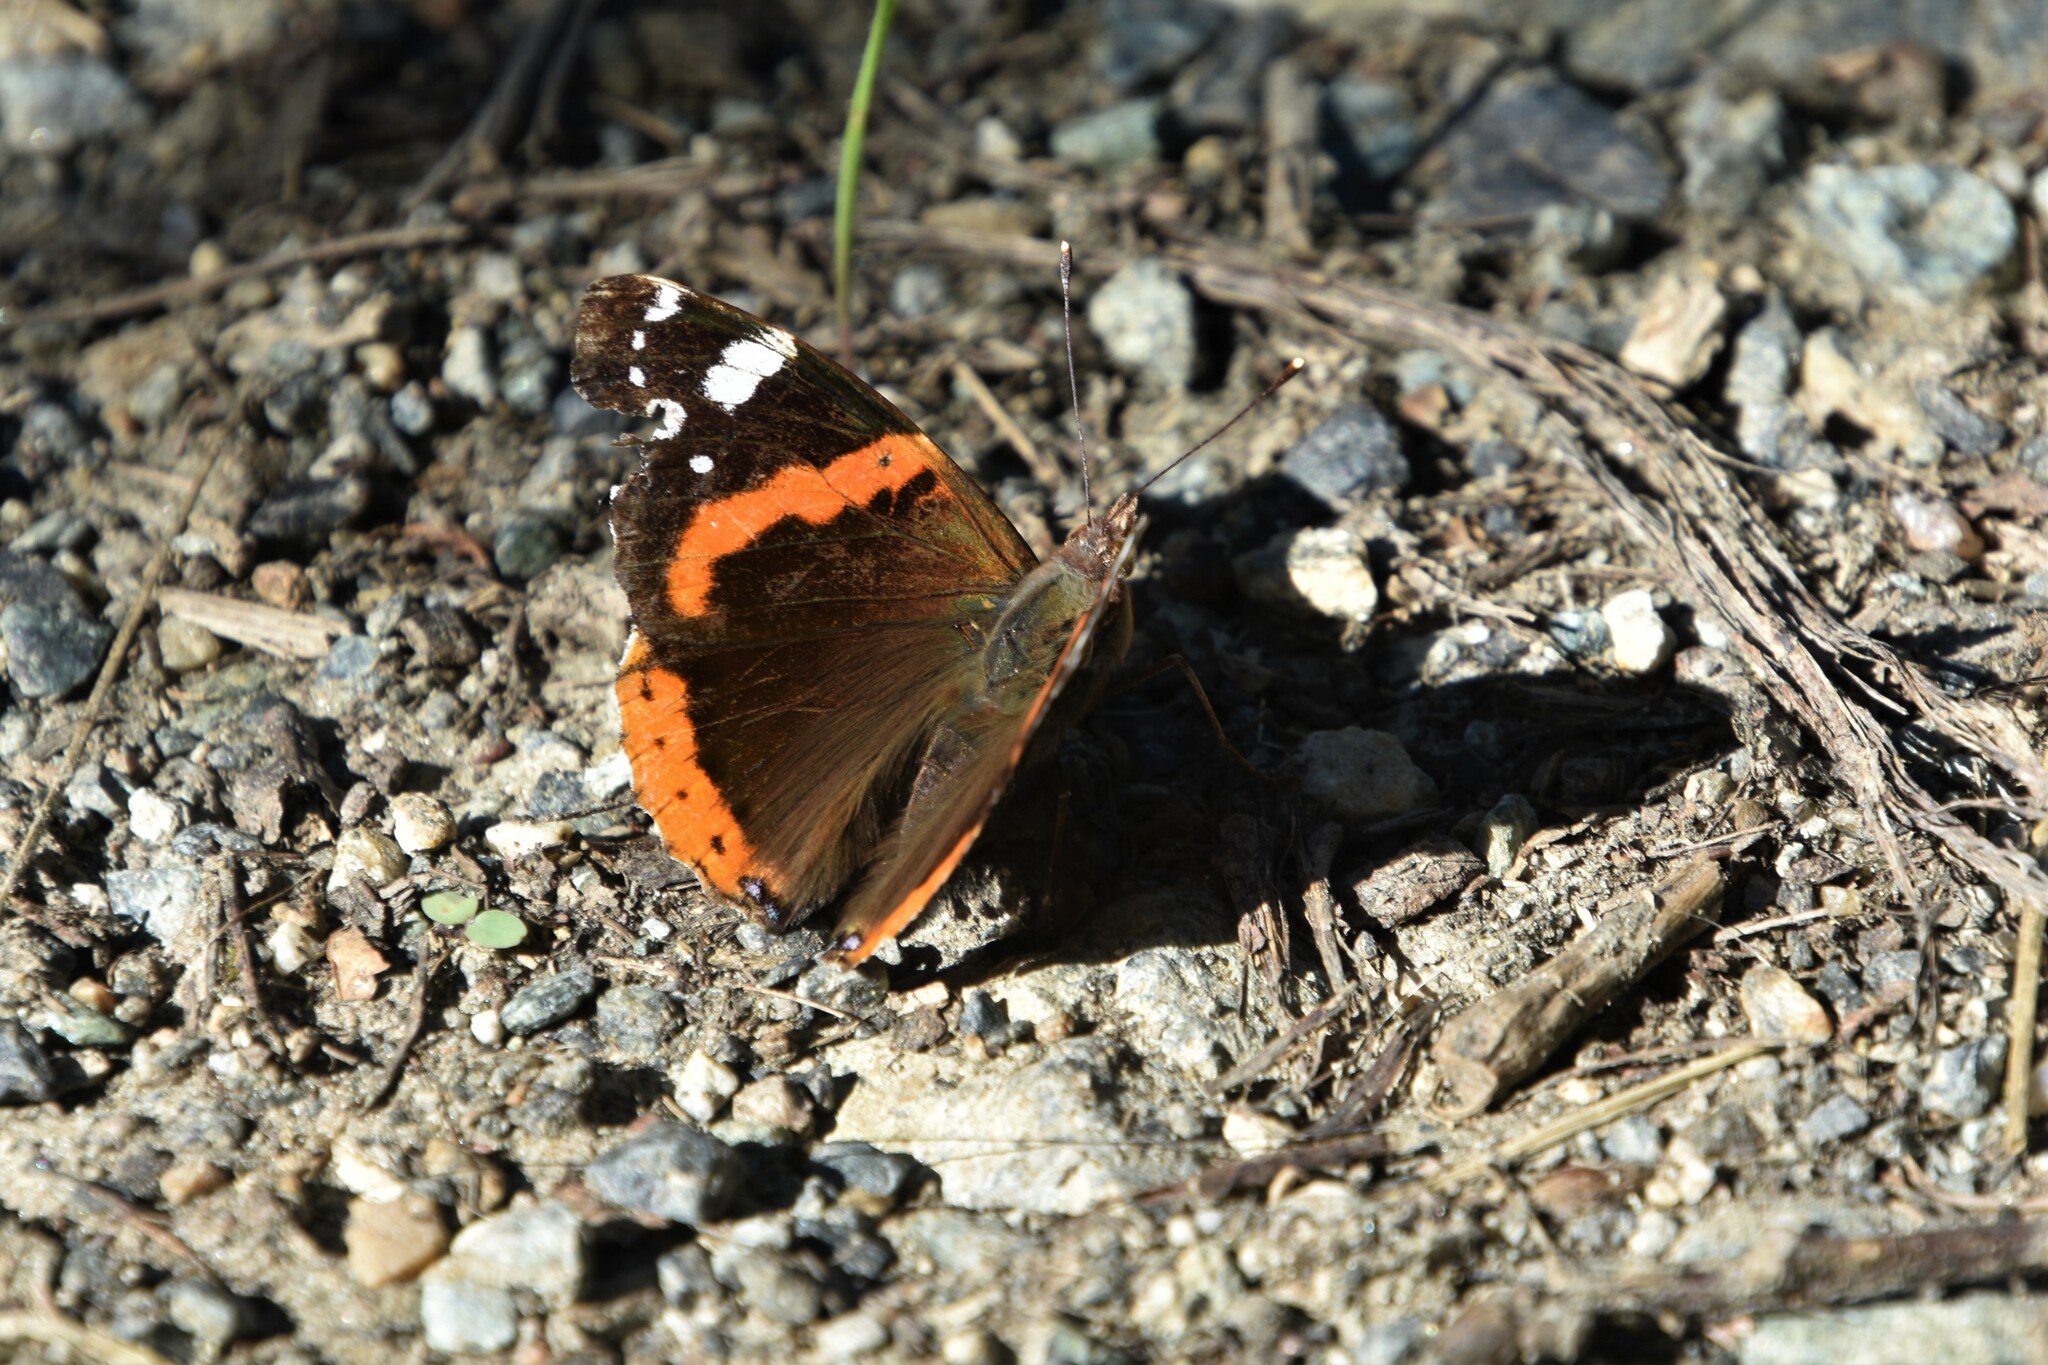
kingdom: Animalia
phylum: Arthropoda
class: Insecta
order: Lepidoptera
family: Nymphalidae
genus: Vanessa
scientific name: Vanessa atalanta
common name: Red admiral
